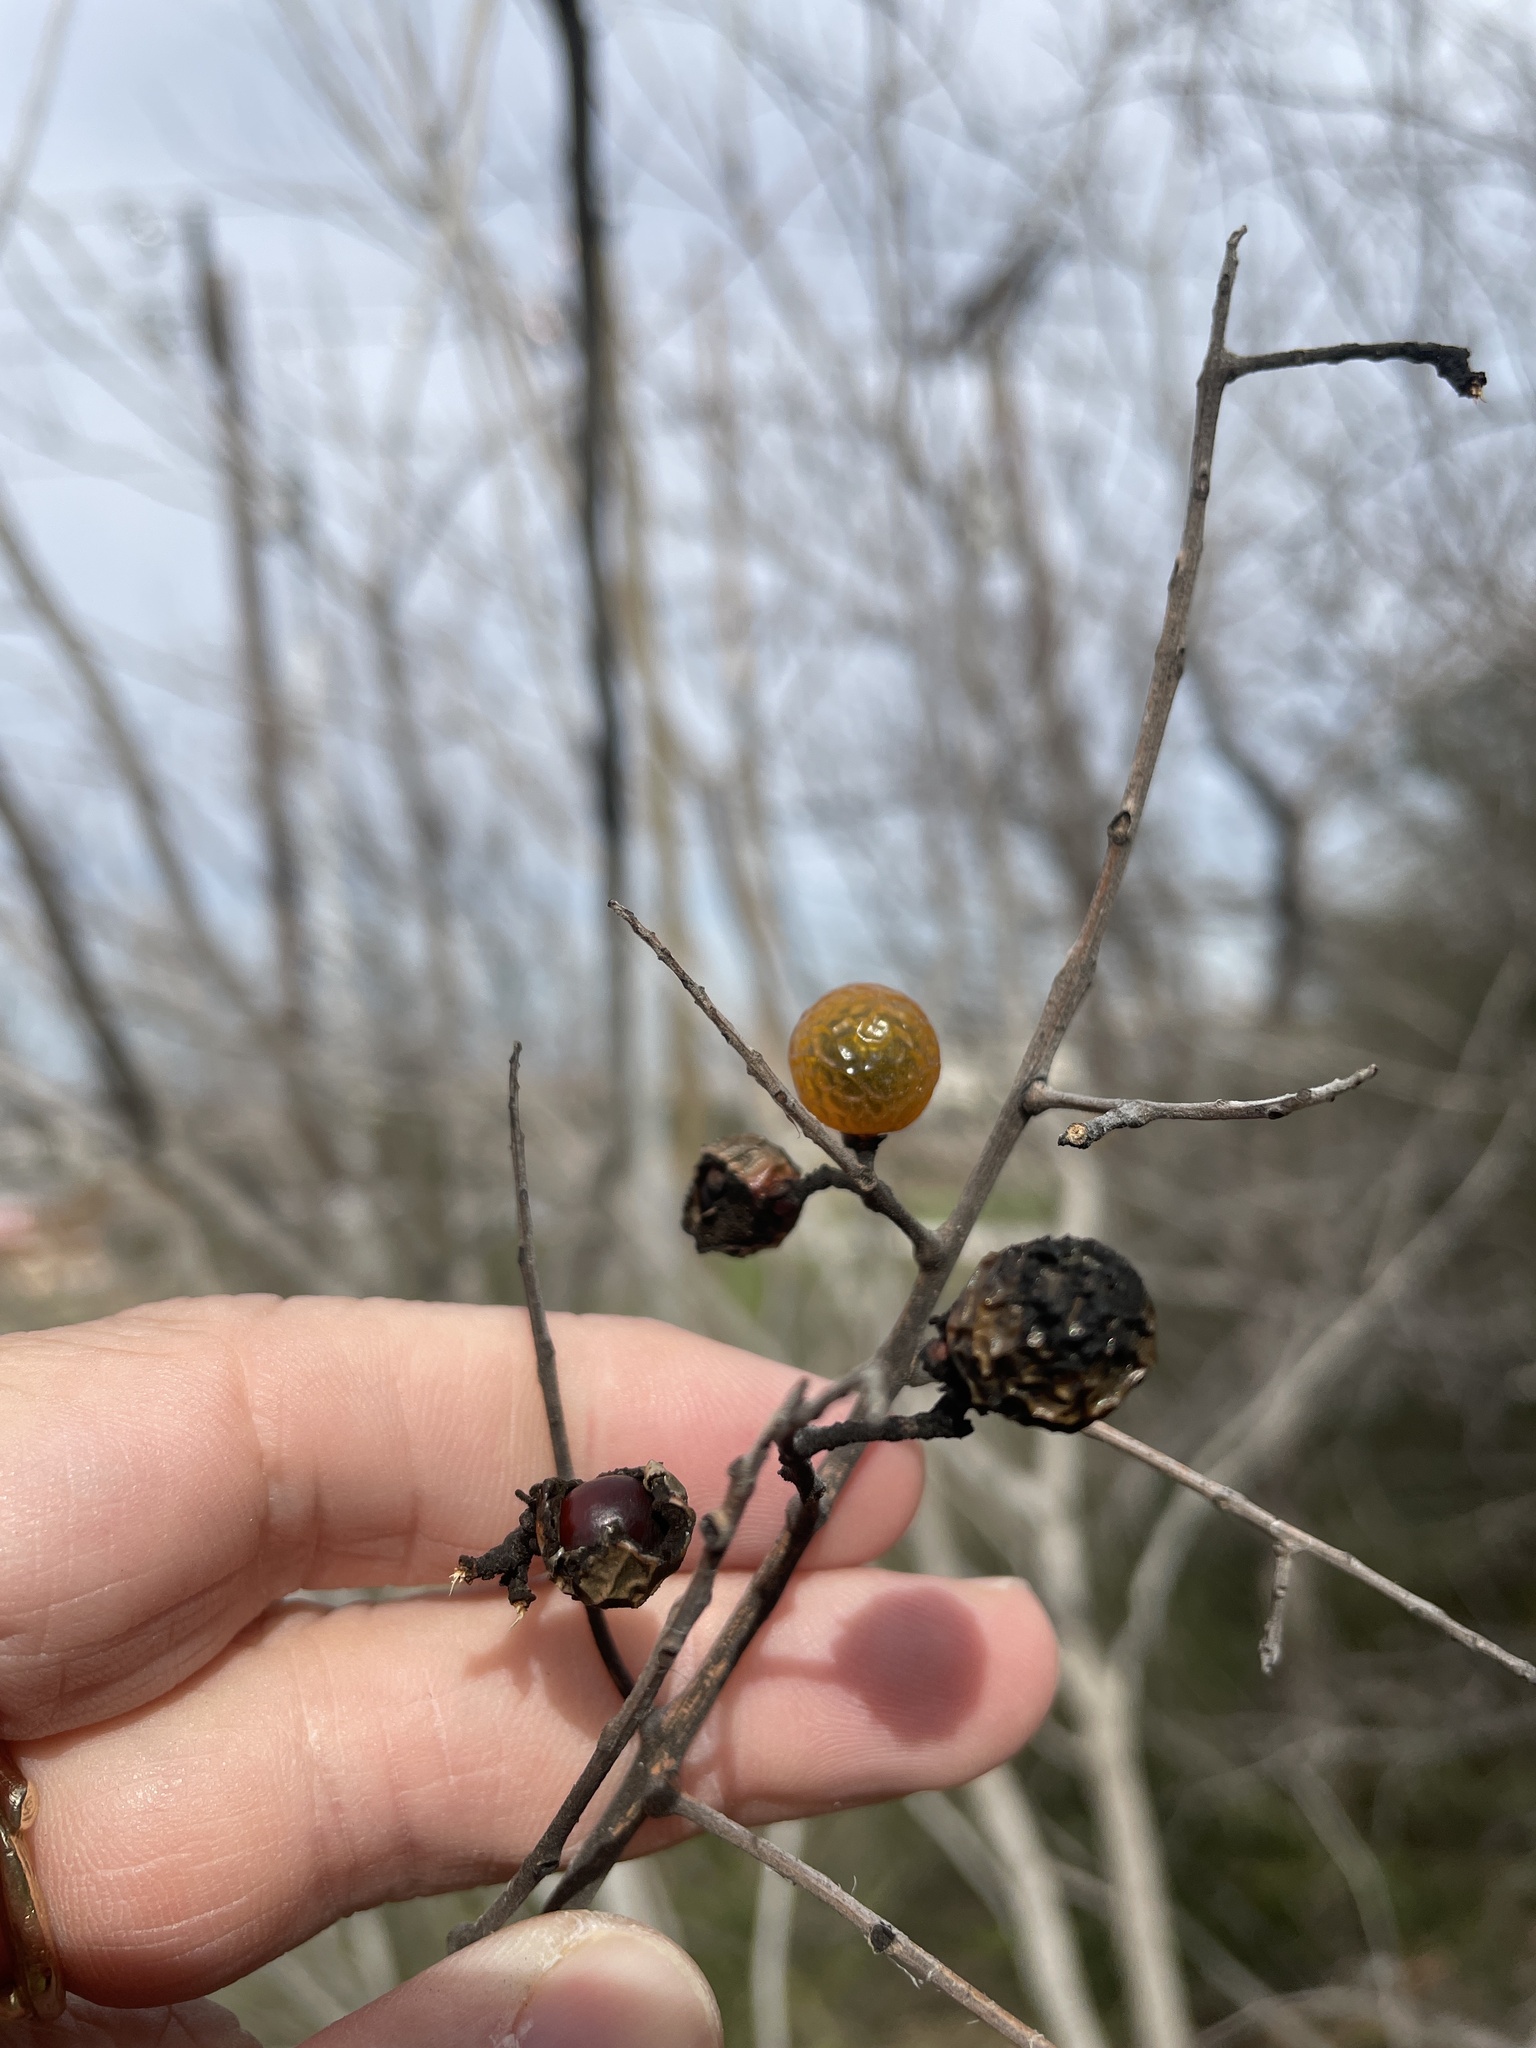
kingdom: Plantae
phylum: Tracheophyta
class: Magnoliopsida
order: Sapindales
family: Sapindaceae
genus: Sapindus
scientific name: Sapindus drummondii
